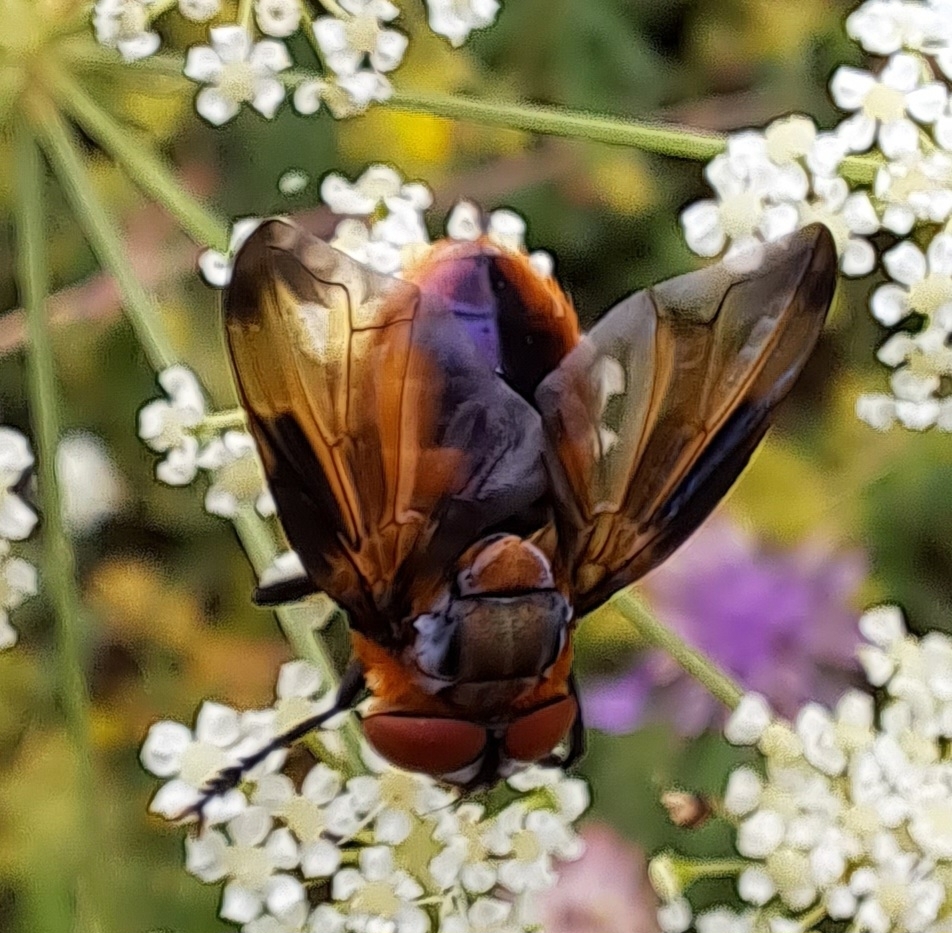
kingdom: Animalia
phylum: Arthropoda
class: Insecta
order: Diptera
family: Tachinidae
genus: Phasia
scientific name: Phasia hemiptera
